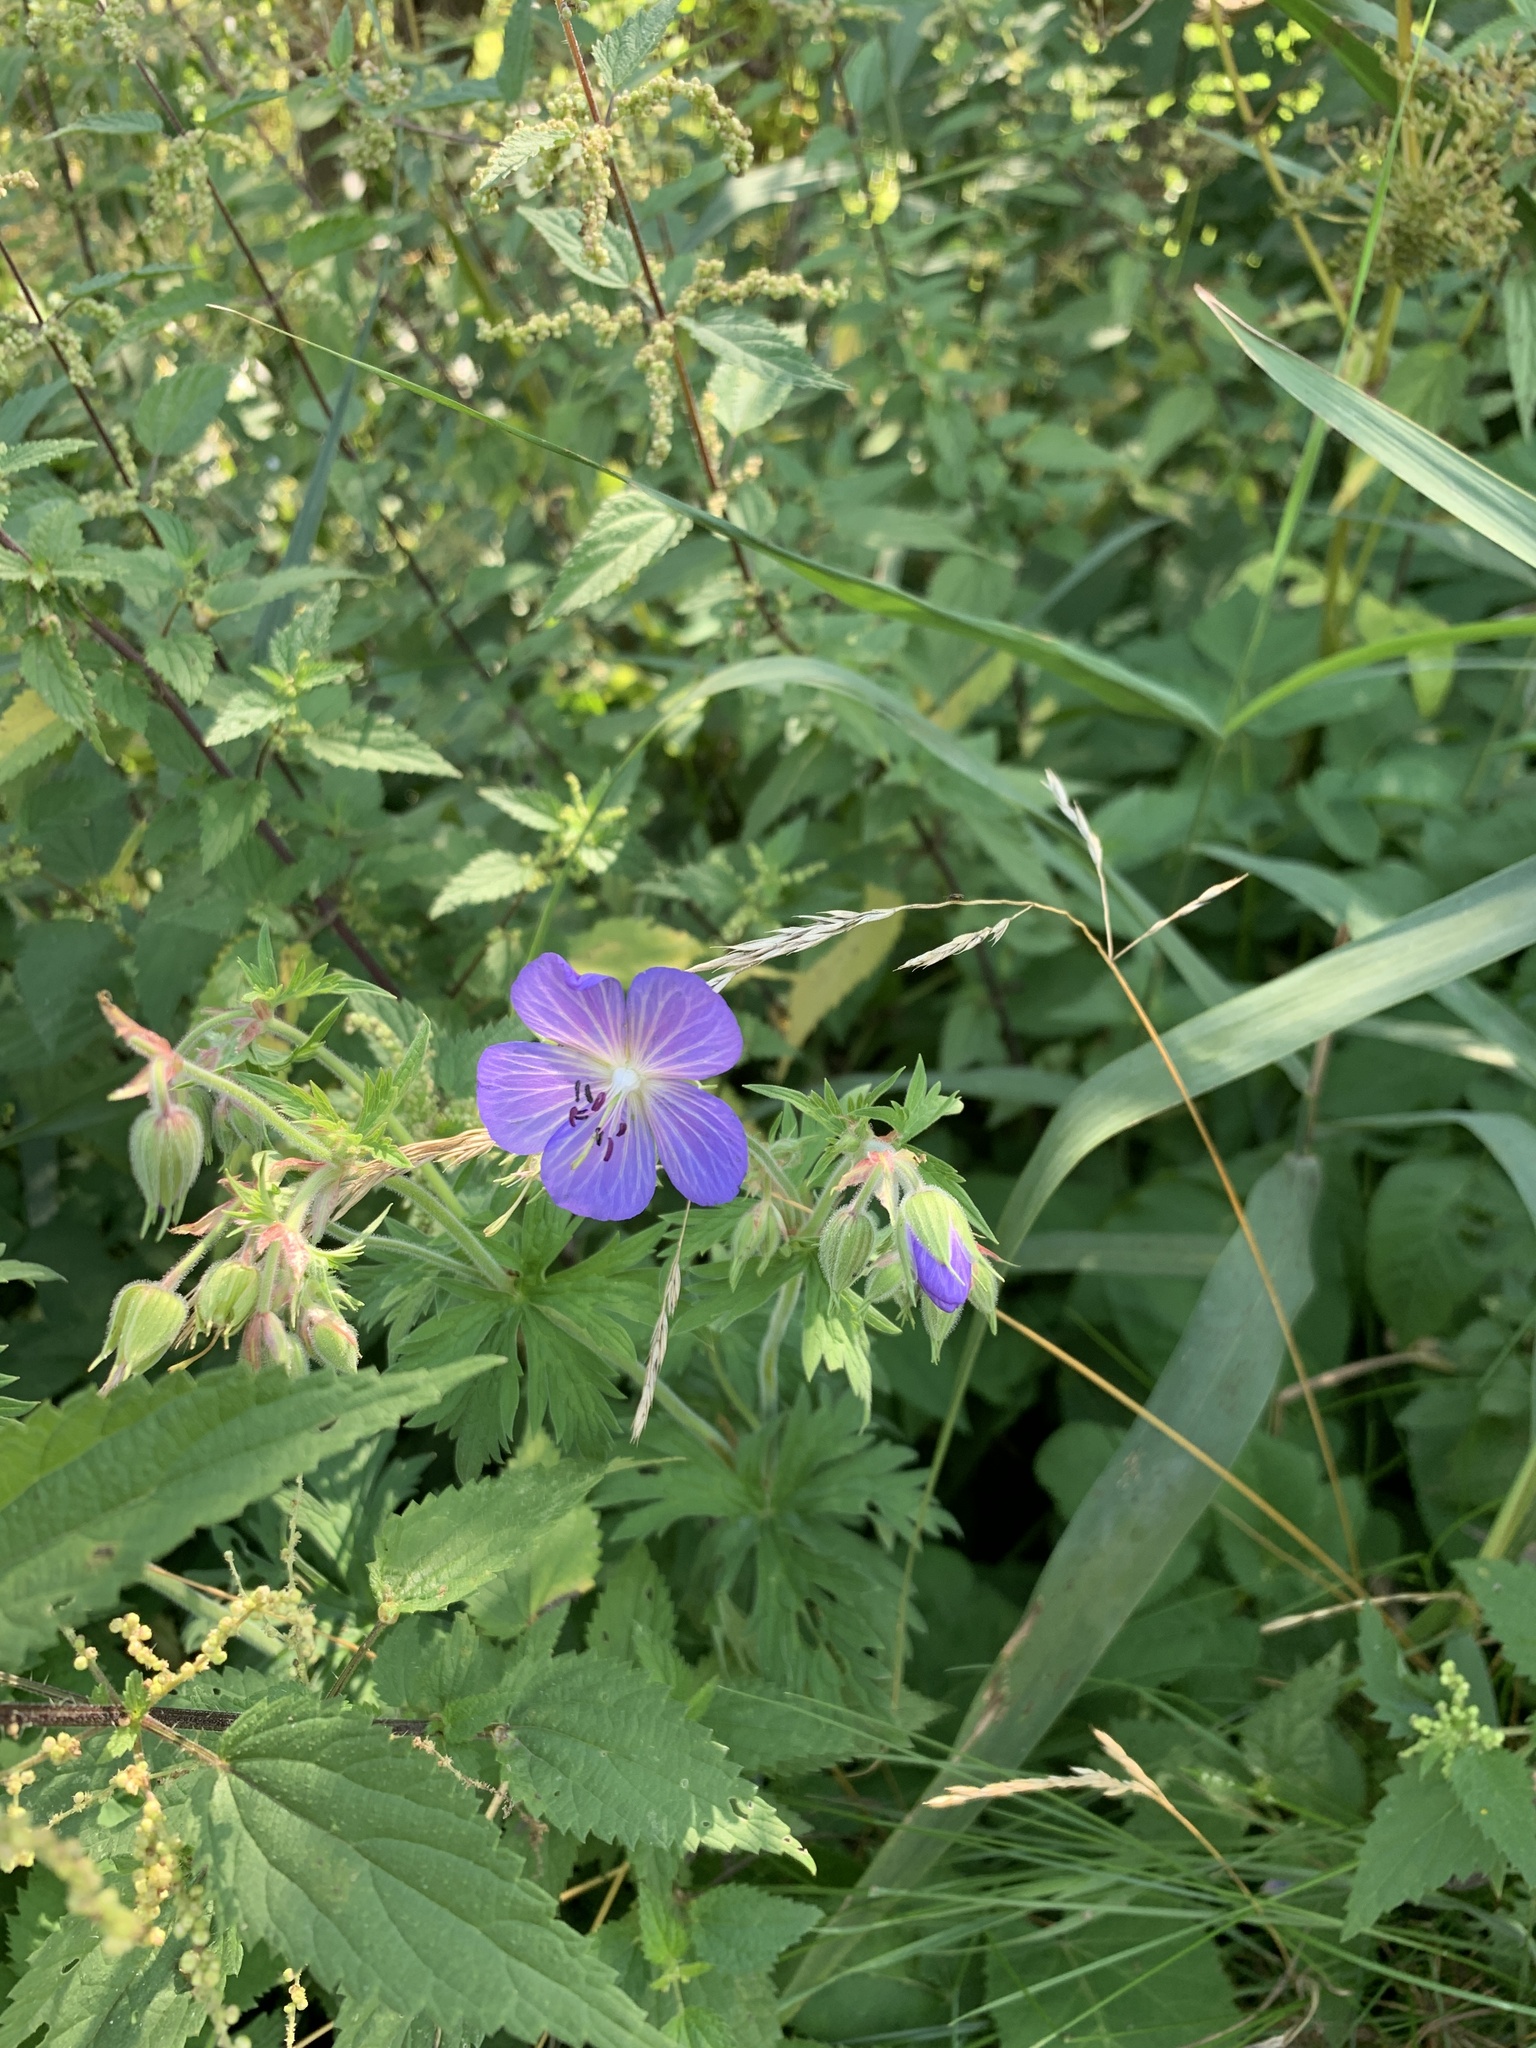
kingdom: Plantae
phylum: Tracheophyta
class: Magnoliopsida
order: Geraniales
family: Geraniaceae
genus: Geranium
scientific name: Geranium pratense
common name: Meadow crane's-bill
